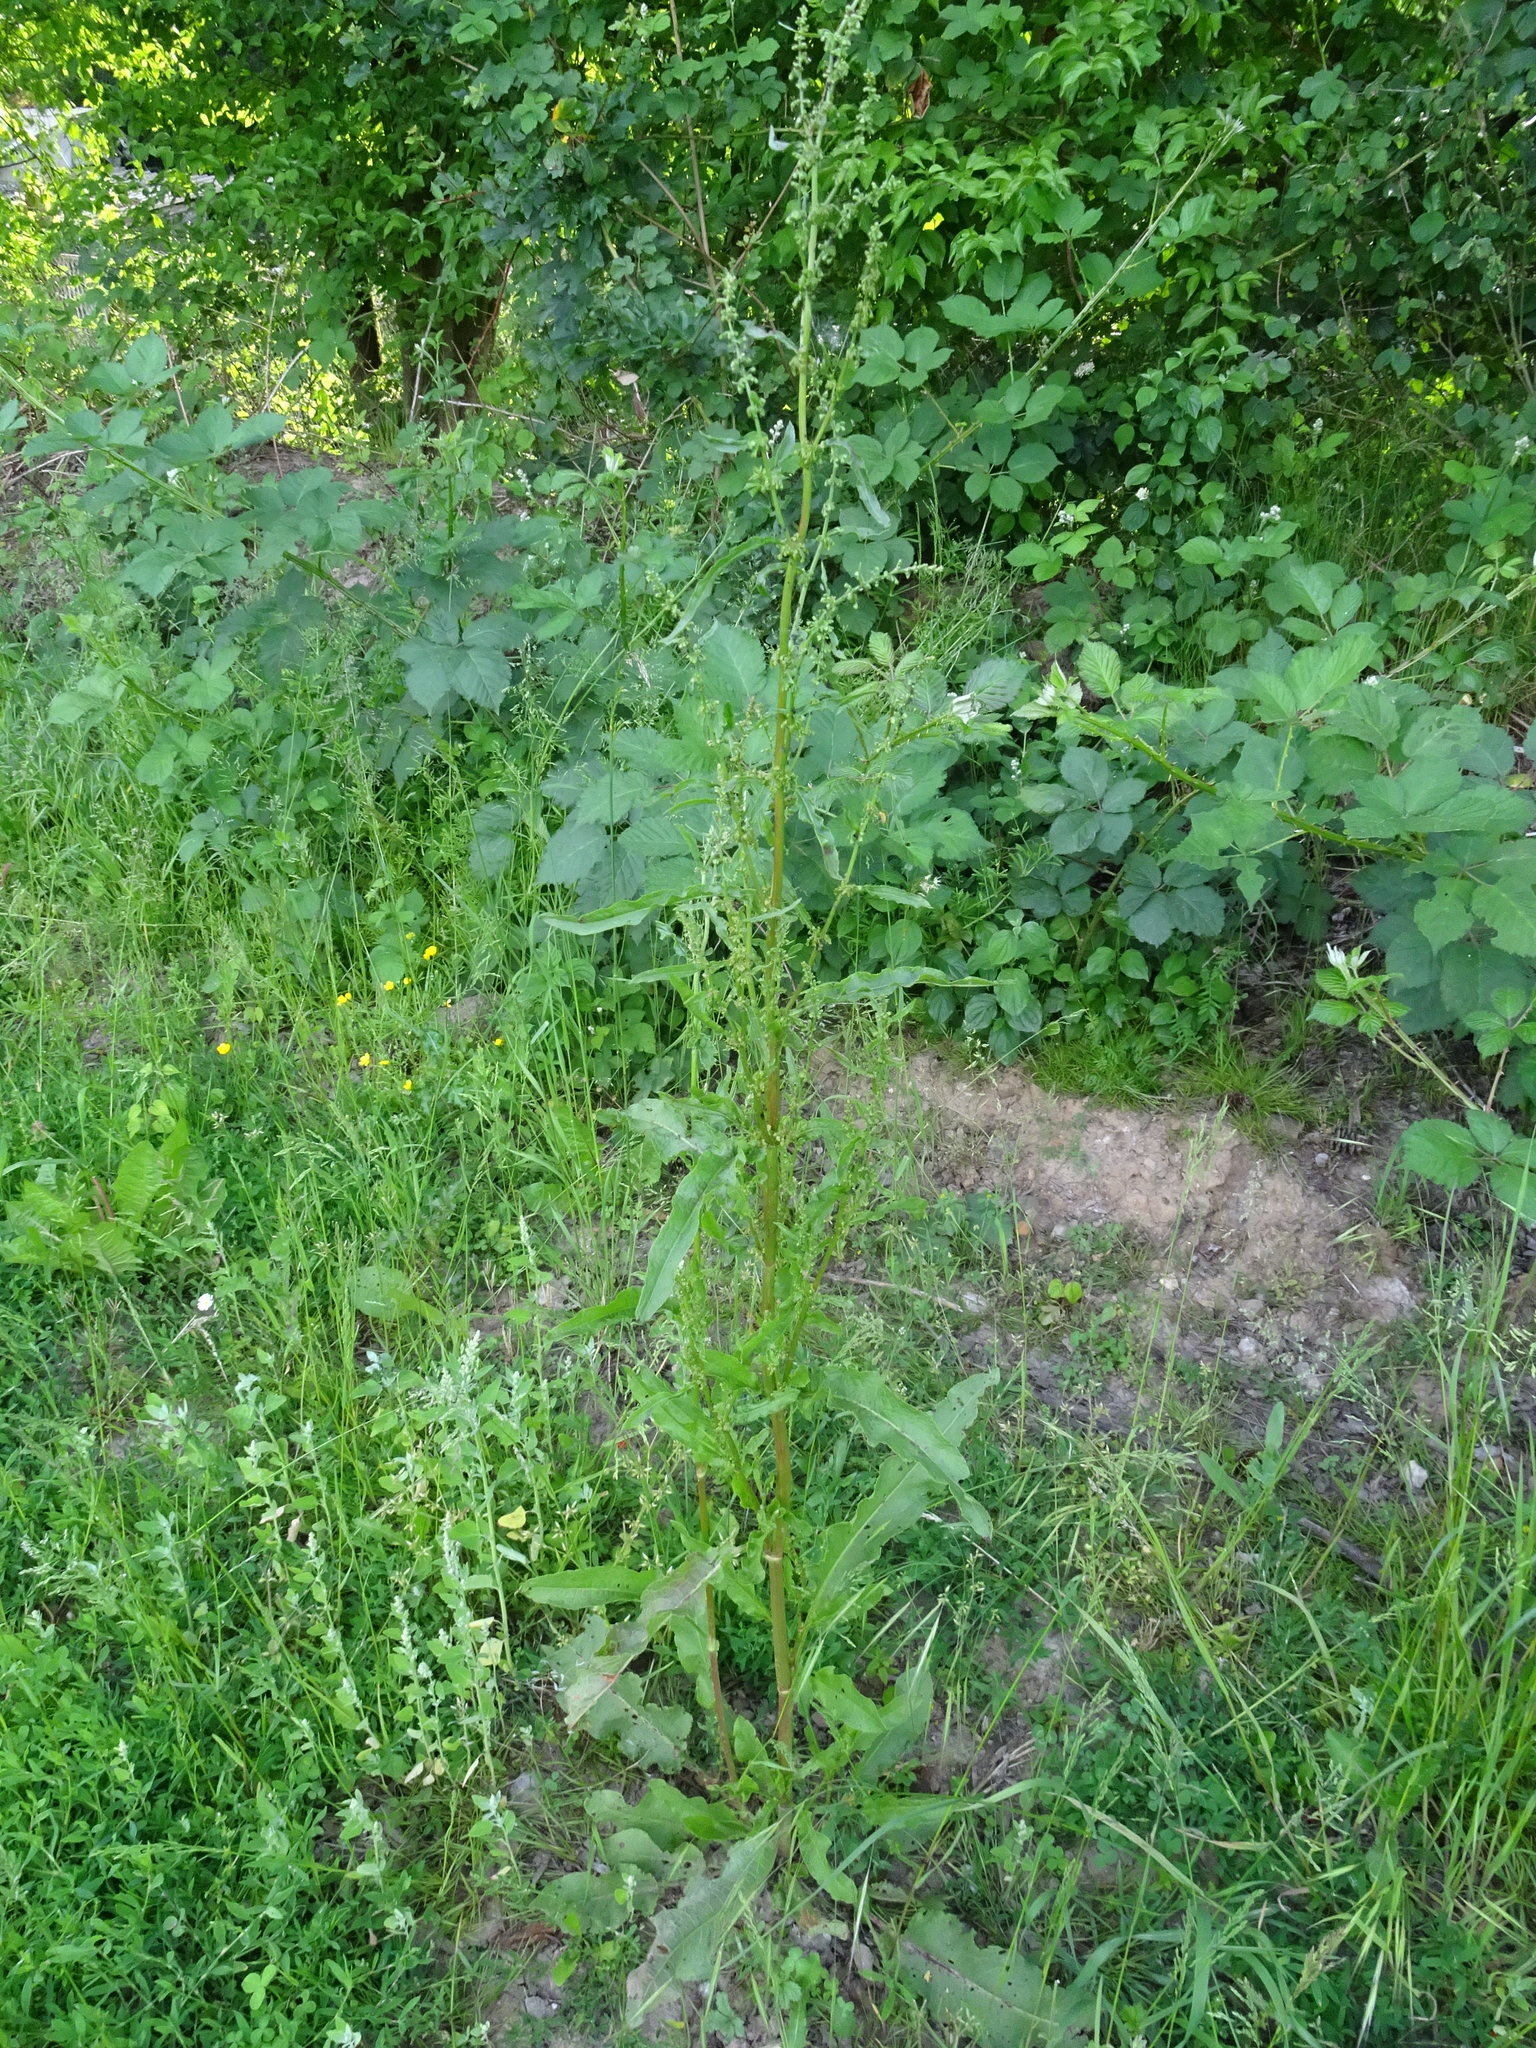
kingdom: Plantae
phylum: Tracheophyta
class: Magnoliopsida
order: Caryophyllales
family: Polygonaceae
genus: Rumex
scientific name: Rumex crispus
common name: Curled dock
